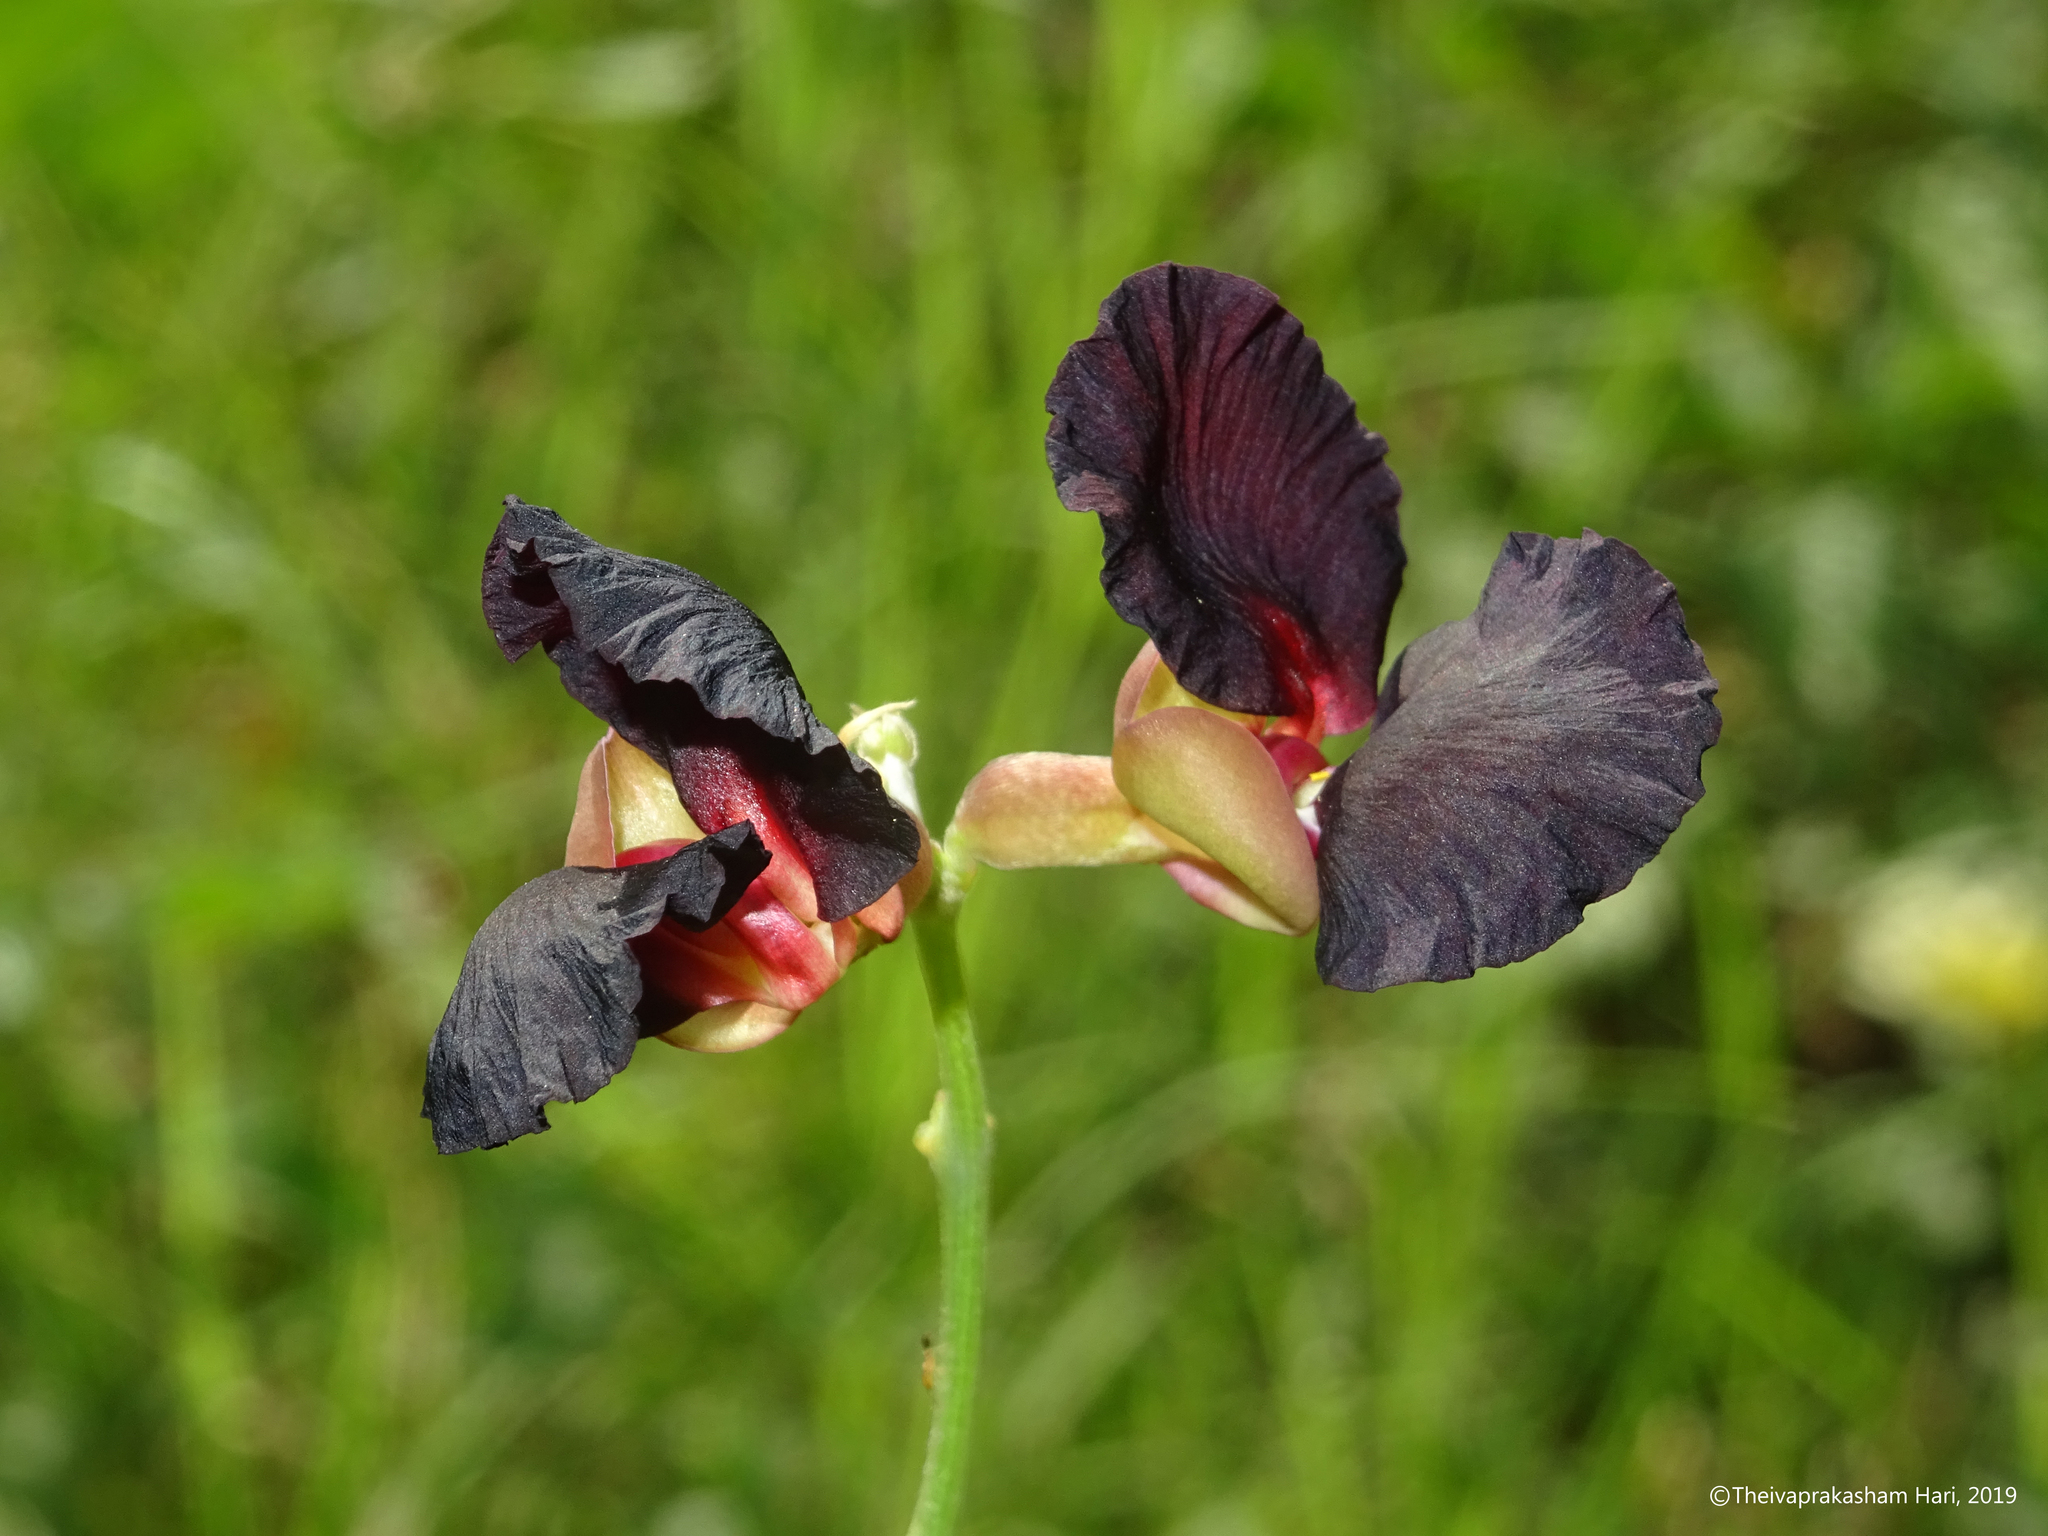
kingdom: Plantae
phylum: Tracheophyta
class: Magnoliopsida
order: Fabales
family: Fabaceae
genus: Macroptilium
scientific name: Macroptilium atropurpureum
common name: Purple bushbean
